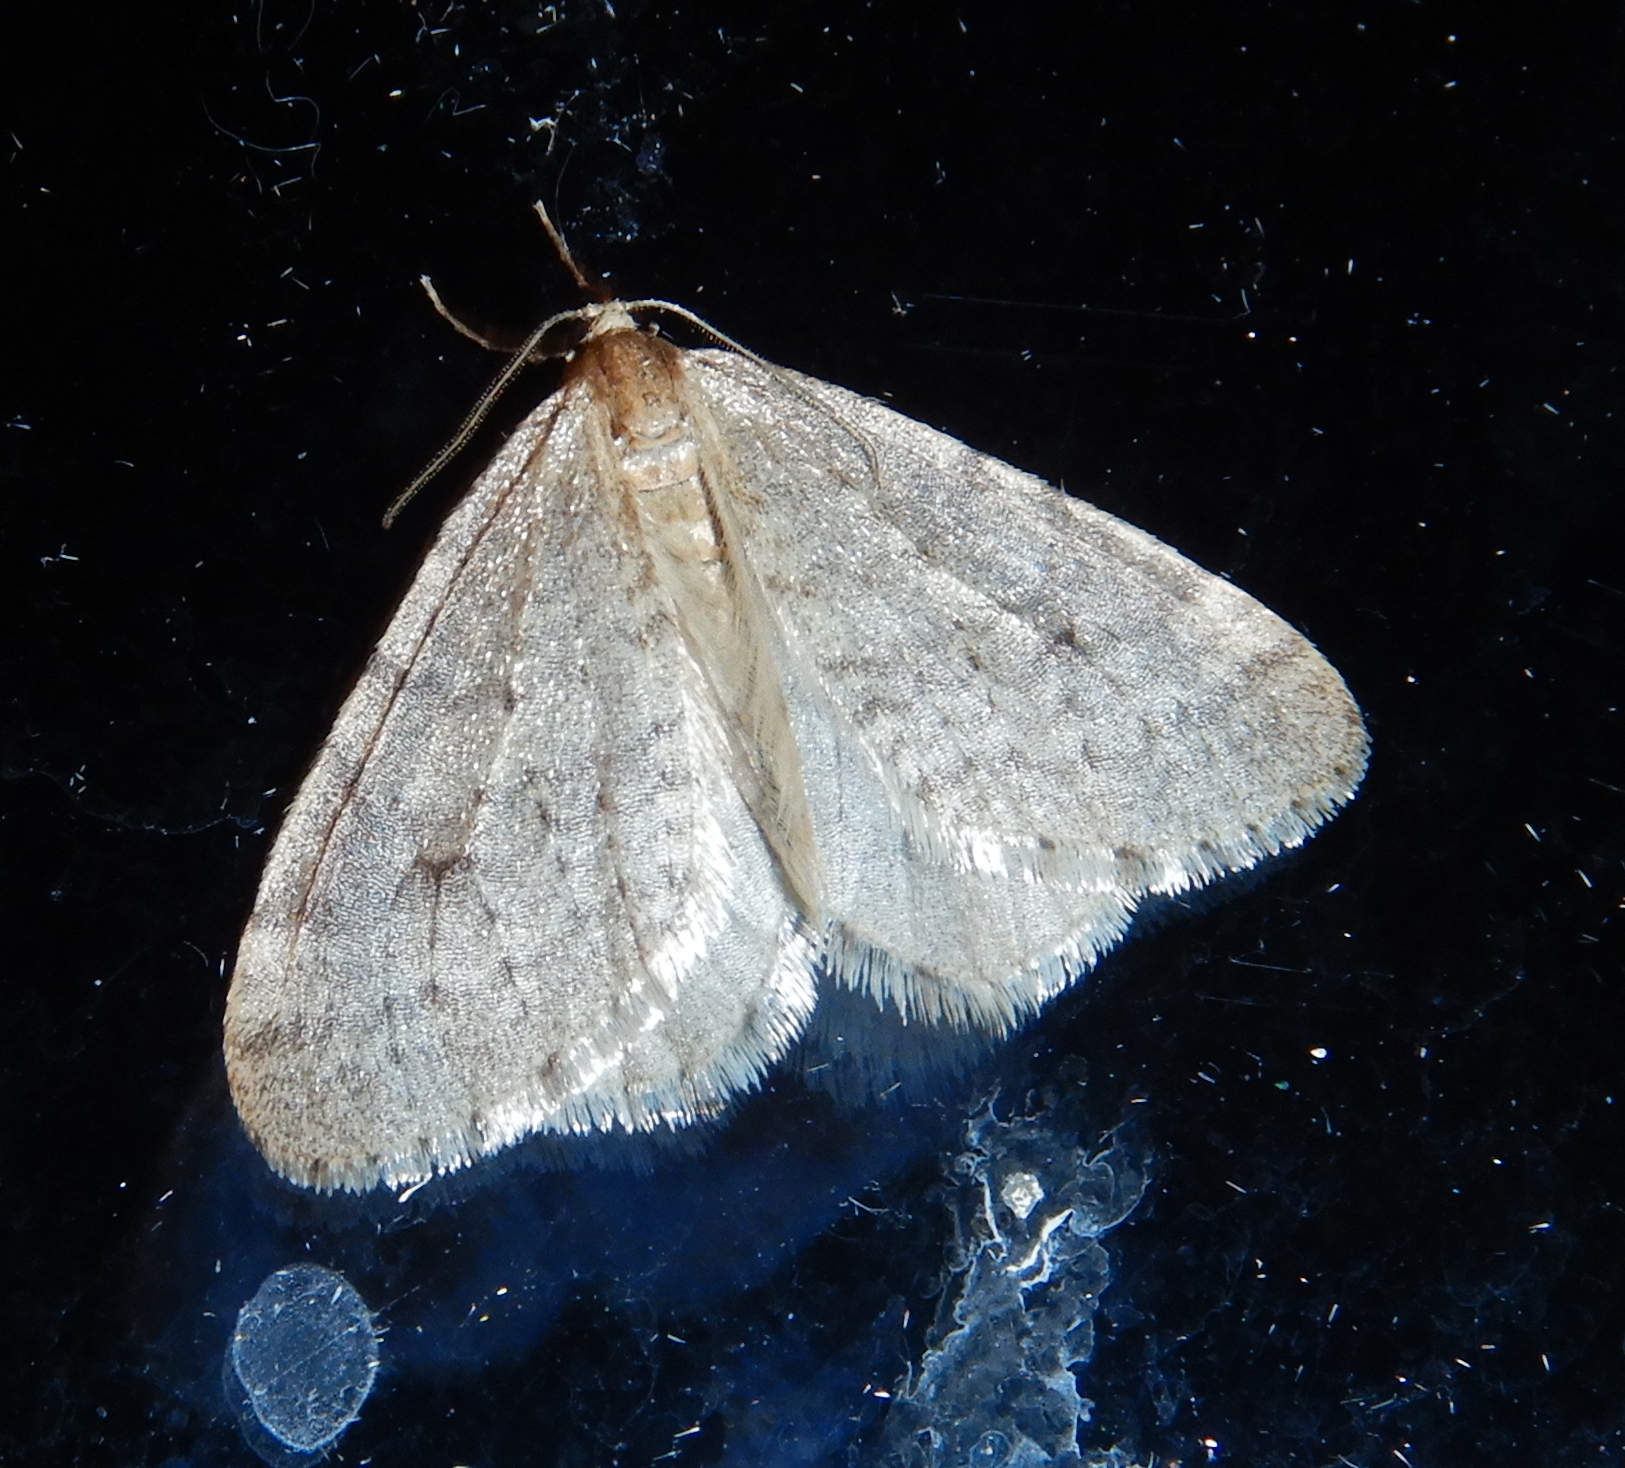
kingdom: Animalia
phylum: Arthropoda
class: Insecta
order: Lepidoptera
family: Geometridae
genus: Operophtera
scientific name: Operophtera bruceata
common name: Bruce spanworm
